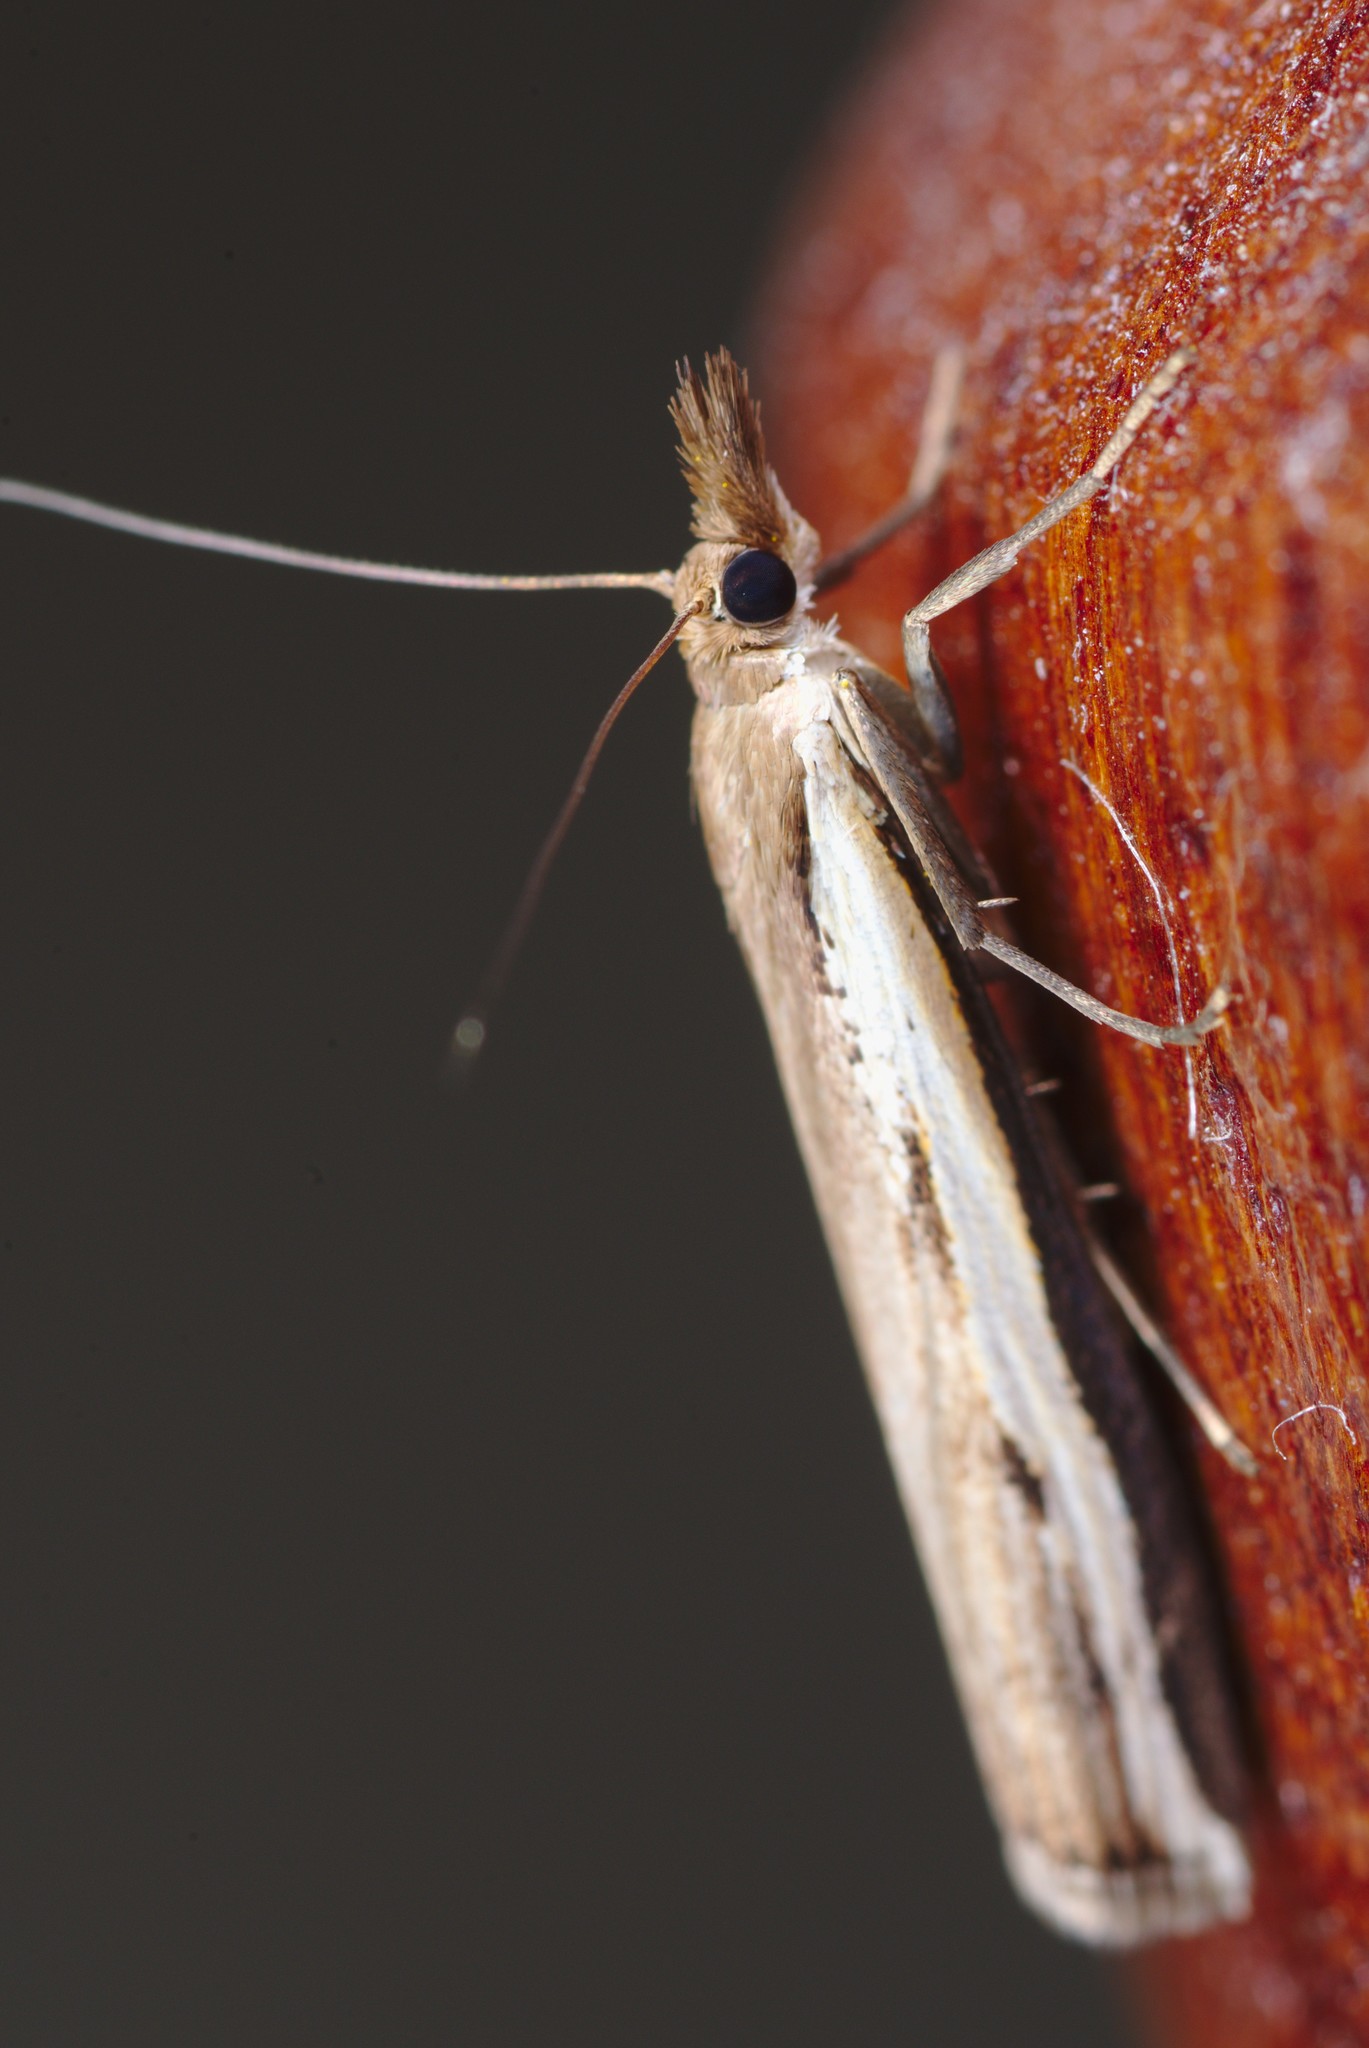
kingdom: Animalia
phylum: Arthropoda
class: Insecta
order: Lepidoptera
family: Crambidae
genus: Orocrambus
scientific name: Orocrambus flexuosellus
